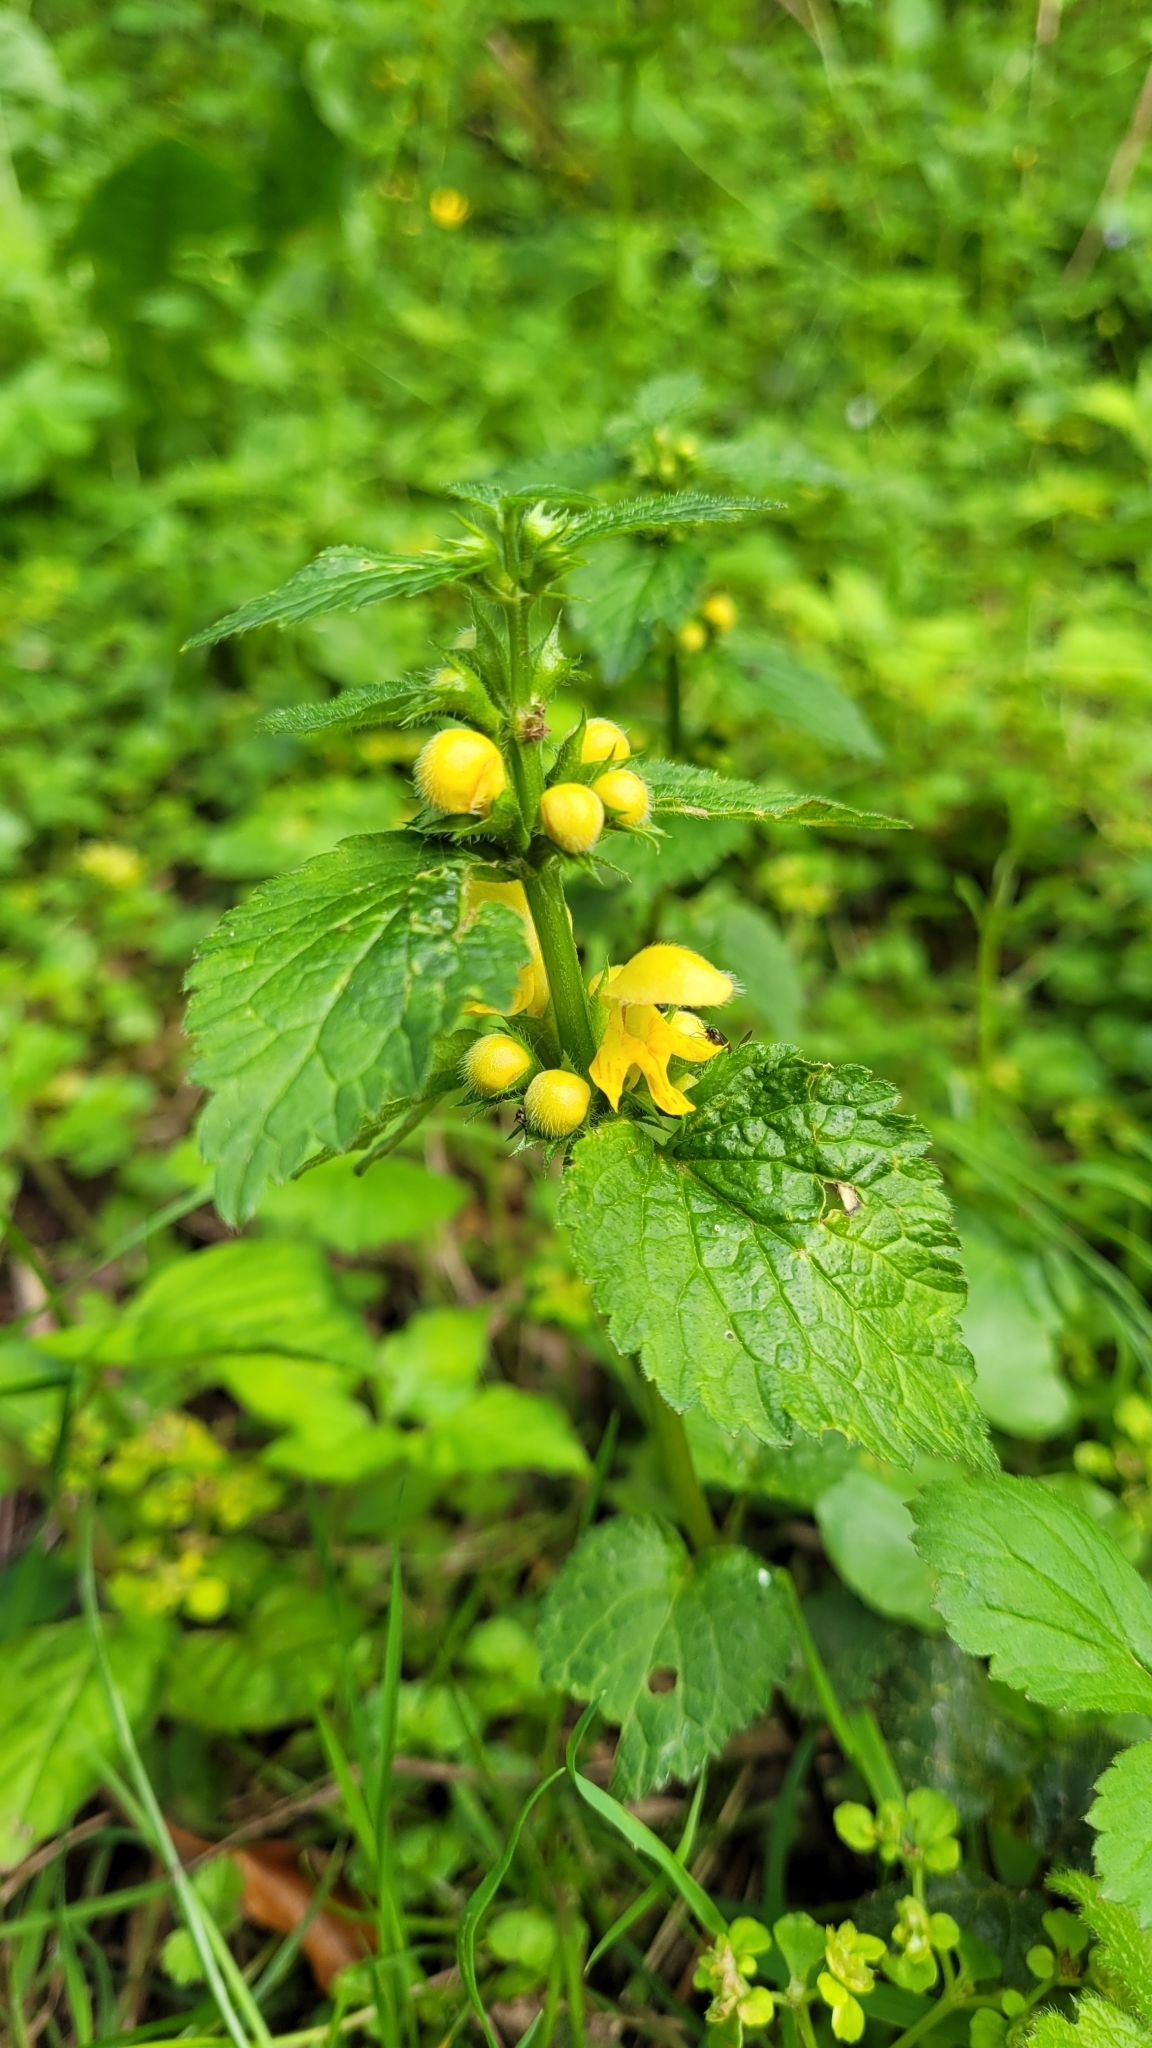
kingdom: Plantae
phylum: Tracheophyta
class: Magnoliopsida
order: Lamiales
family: Lamiaceae
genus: Lamium
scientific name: Lamium galeobdolon
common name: Yellow archangel
